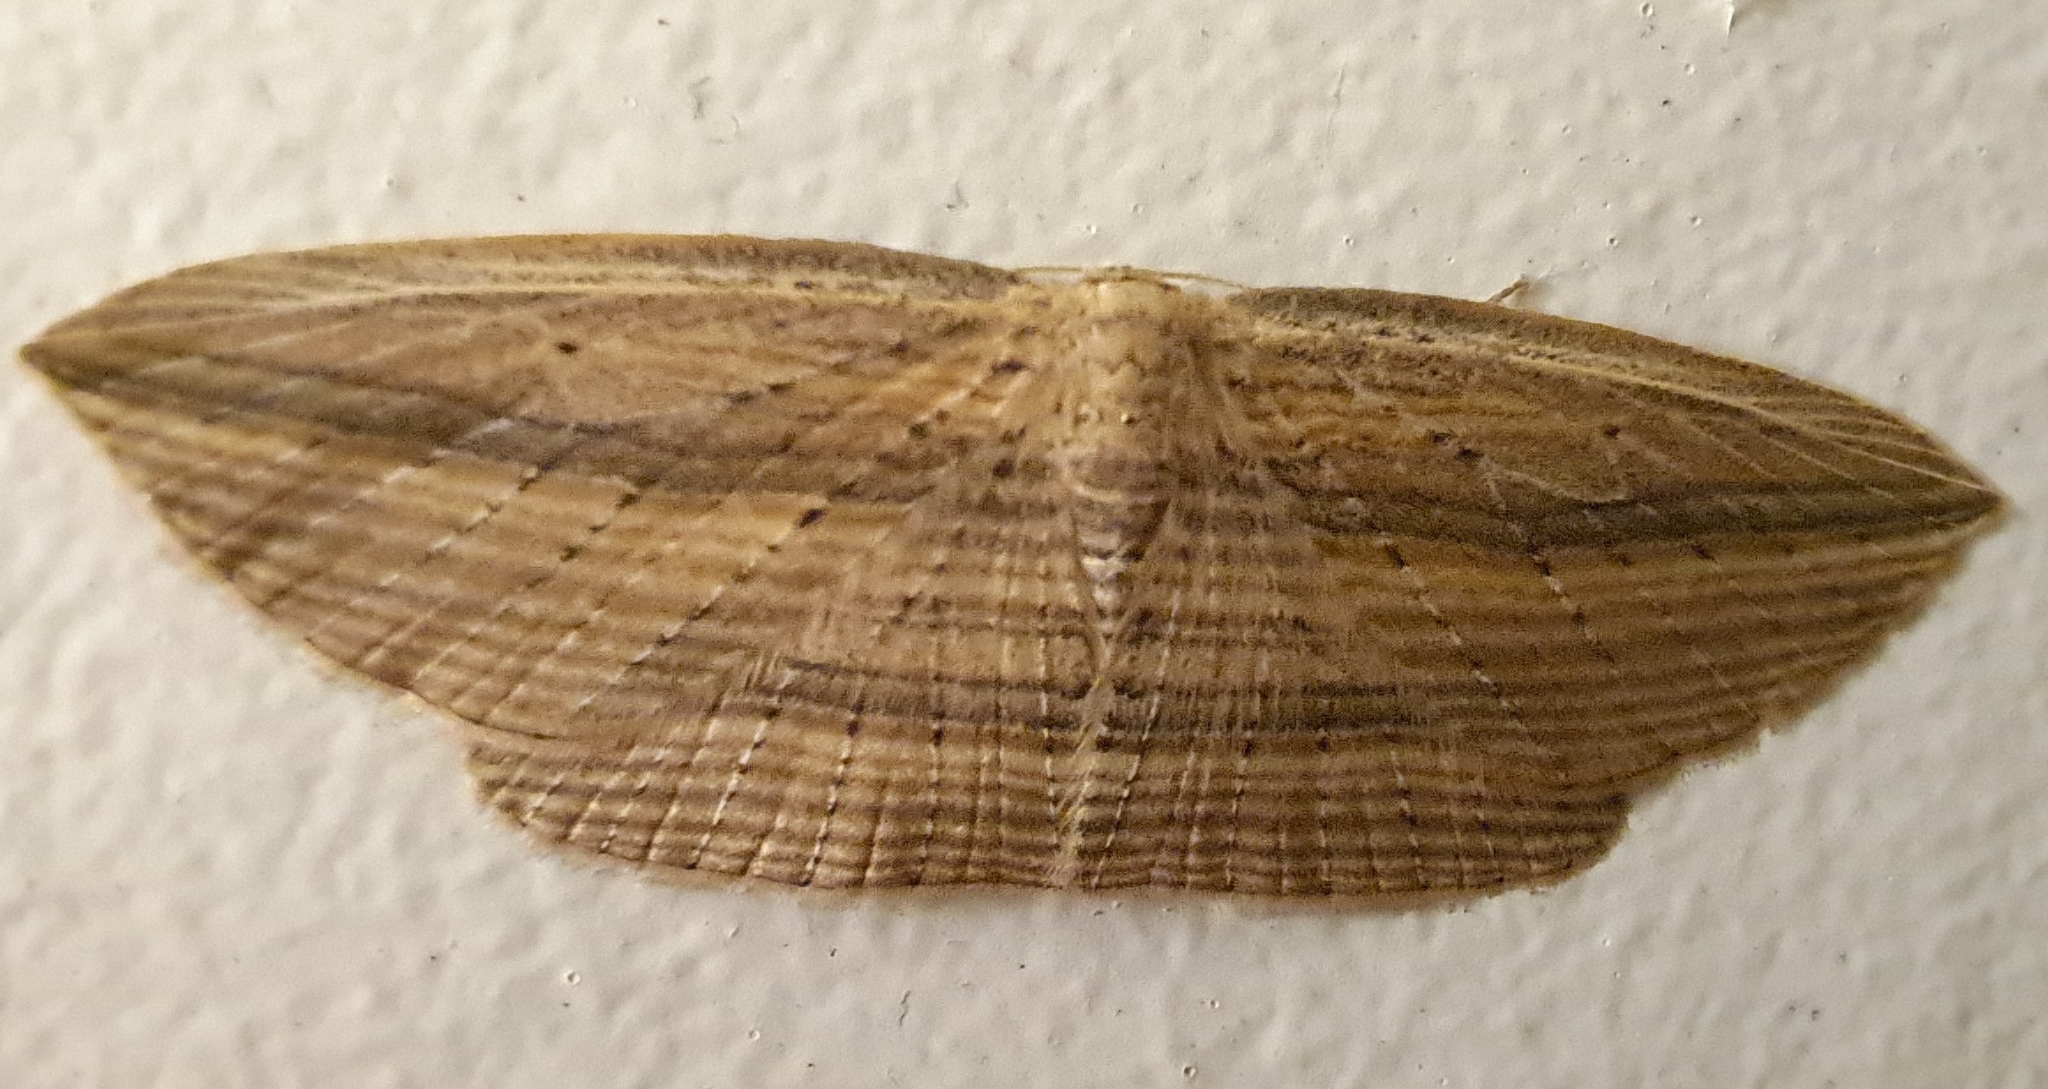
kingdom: Animalia
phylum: Arthropoda
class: Insecta
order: Lepidoptera
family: Geometridae
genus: Epiphryne
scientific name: Epiphryne verriculata
